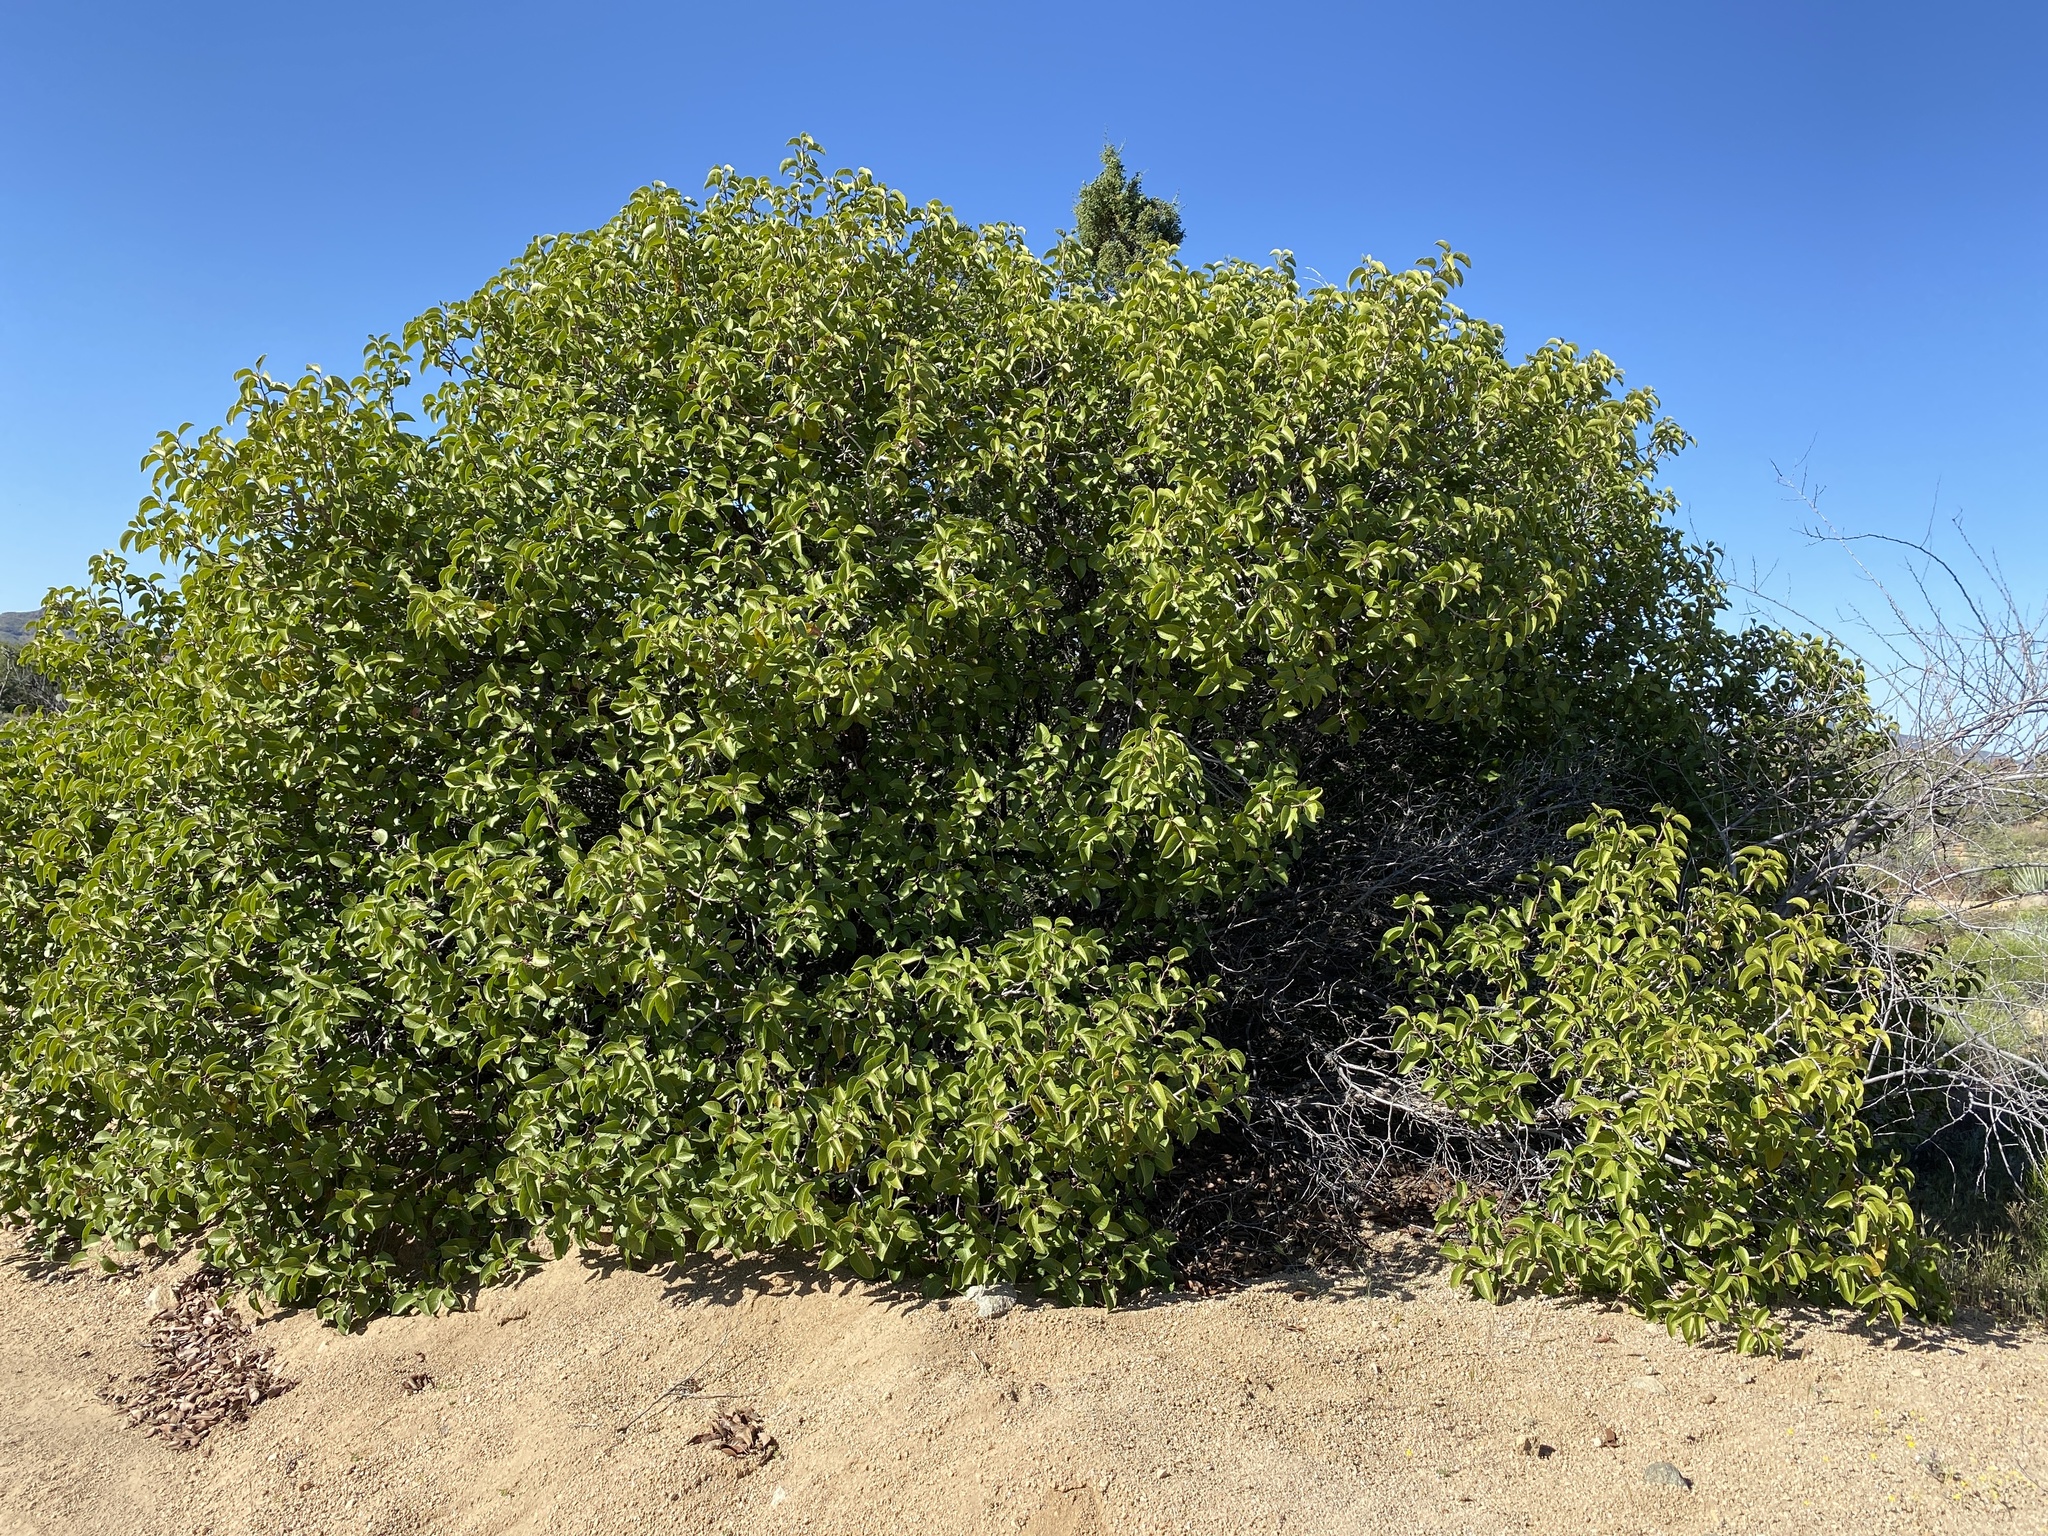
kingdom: Plantae
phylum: Tracheophyta
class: Magnoliopsida
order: Sapindales
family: Anacardiaceae
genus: Rhus
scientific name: Rhus ovata
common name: Sugar sumac
